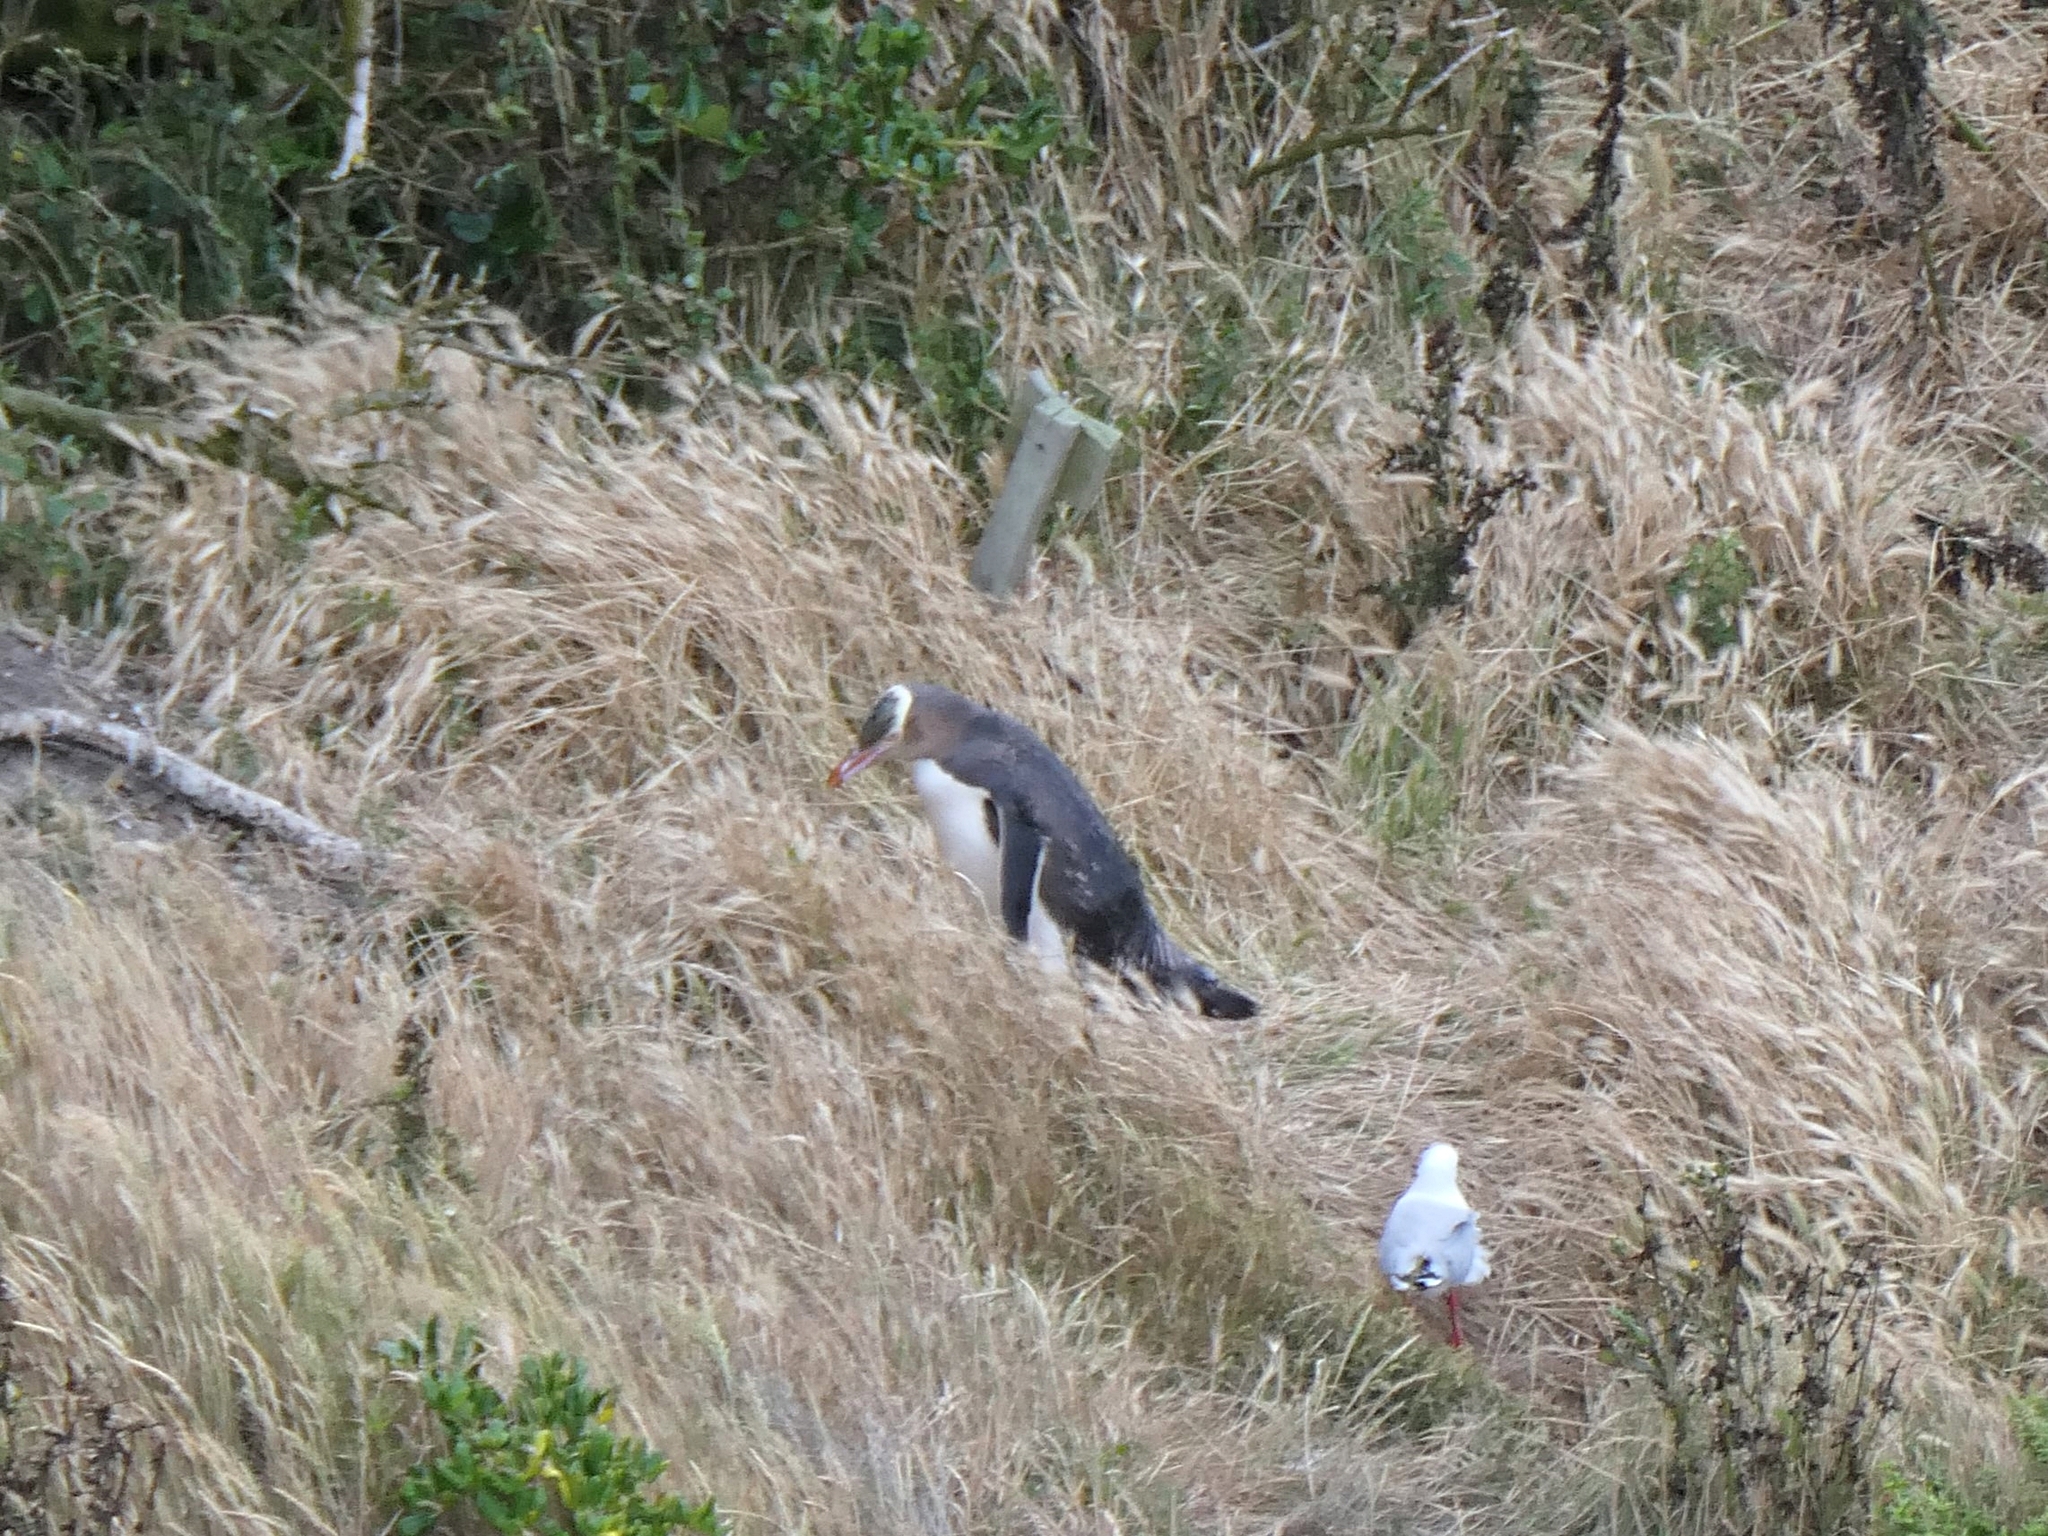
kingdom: Animalia
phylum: Chordata
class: Aves
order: Sphenisciformes
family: Spheniscidae
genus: Megadyptes
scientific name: Megadyptes antipodes
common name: Yellow-eyed penguin
